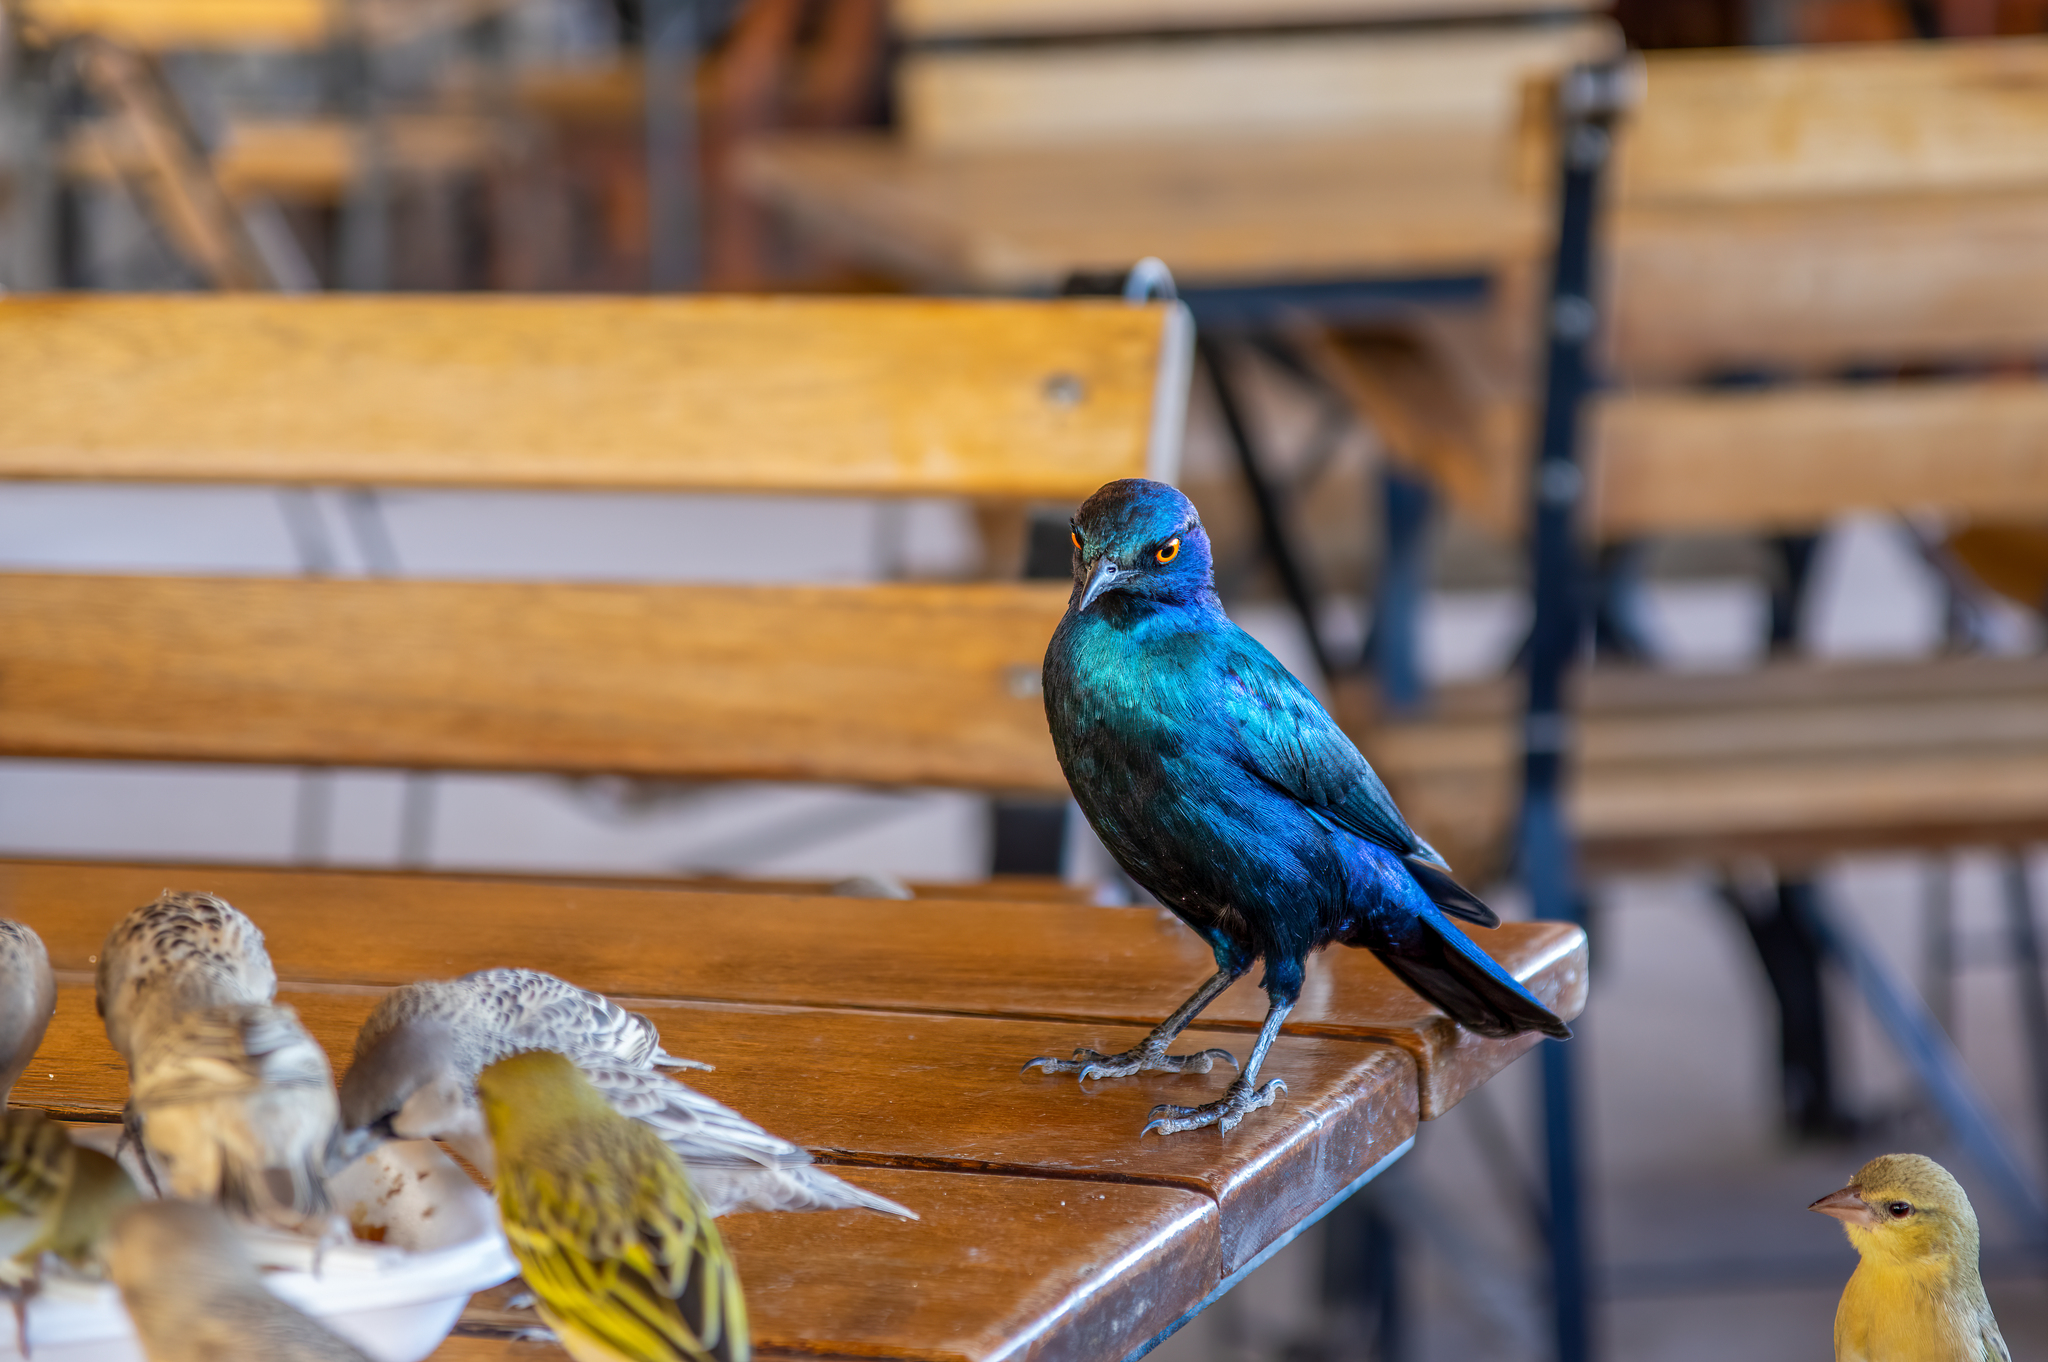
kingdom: Animalia
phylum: Chordata
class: Aves
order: Passeriformes
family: Sturnidae
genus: Lamprotornis
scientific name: Lamprotornis nitens
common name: Cape starling
